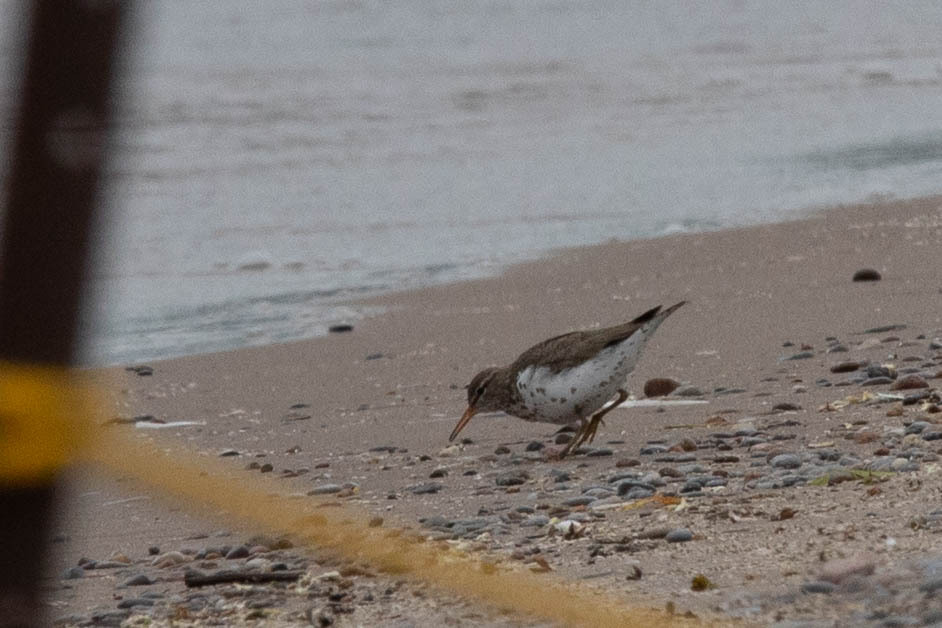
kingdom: Animalia
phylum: Chordata
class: Aves
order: Charadriiformes
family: Scolopacidae
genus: Actitis
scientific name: Actitis macularius
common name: Spotted sandpiper
